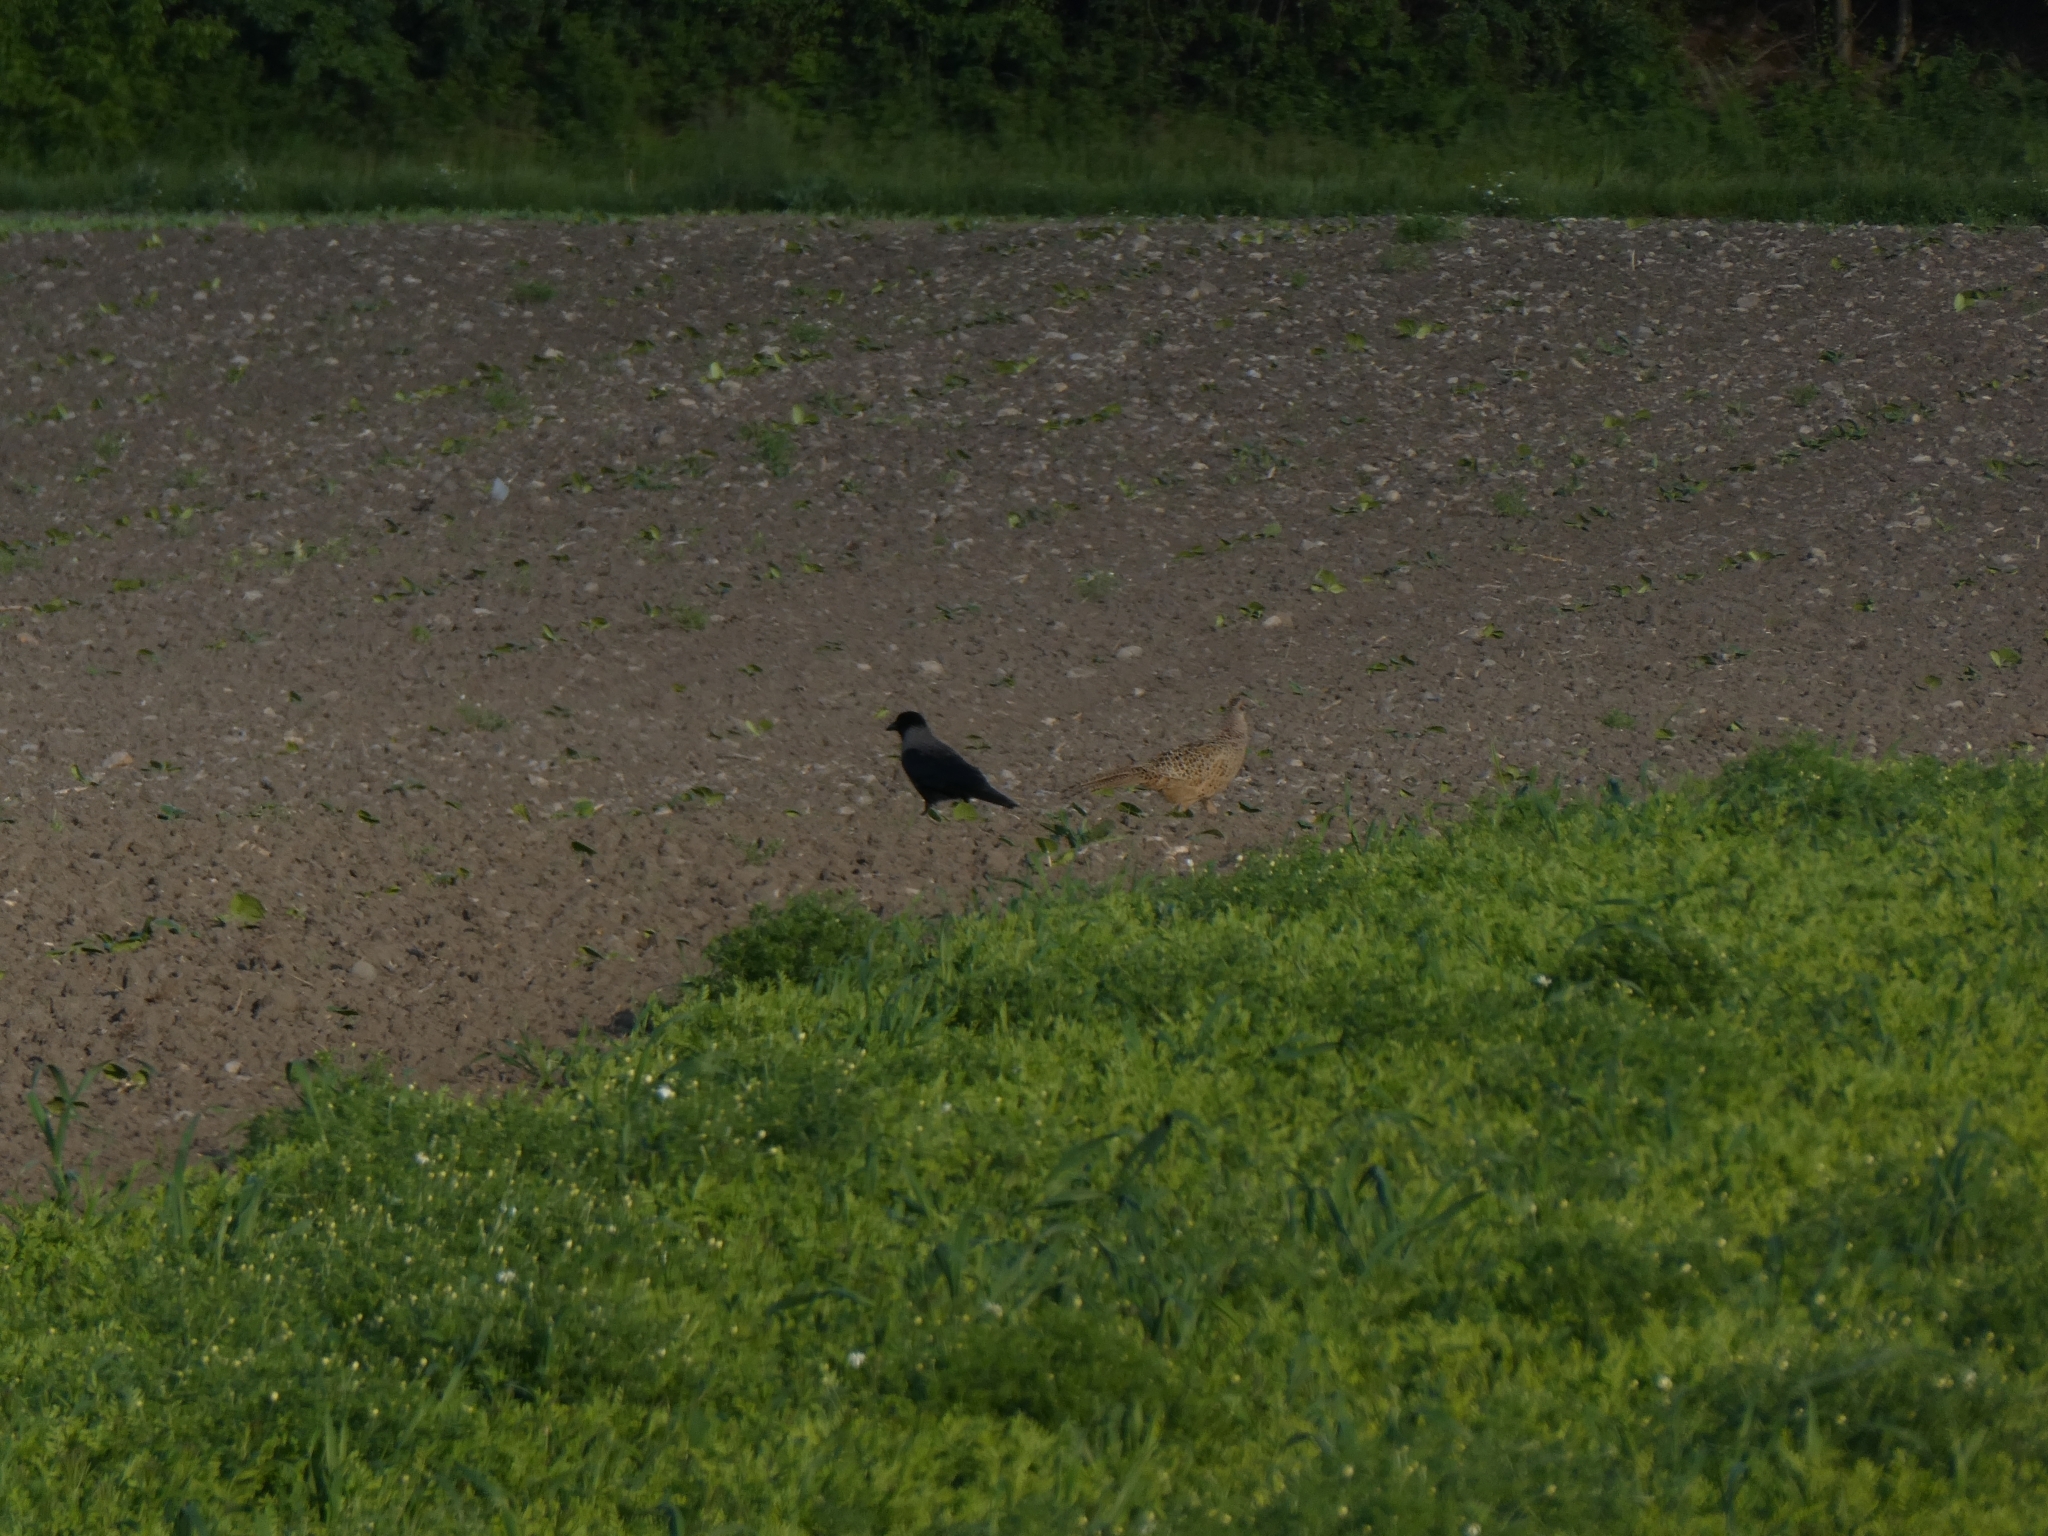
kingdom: Animalia
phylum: Chordata
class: Aves
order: Galliformes
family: Phasianidae
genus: Phasianus
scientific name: Phasianus colchicus
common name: Common pheasant
